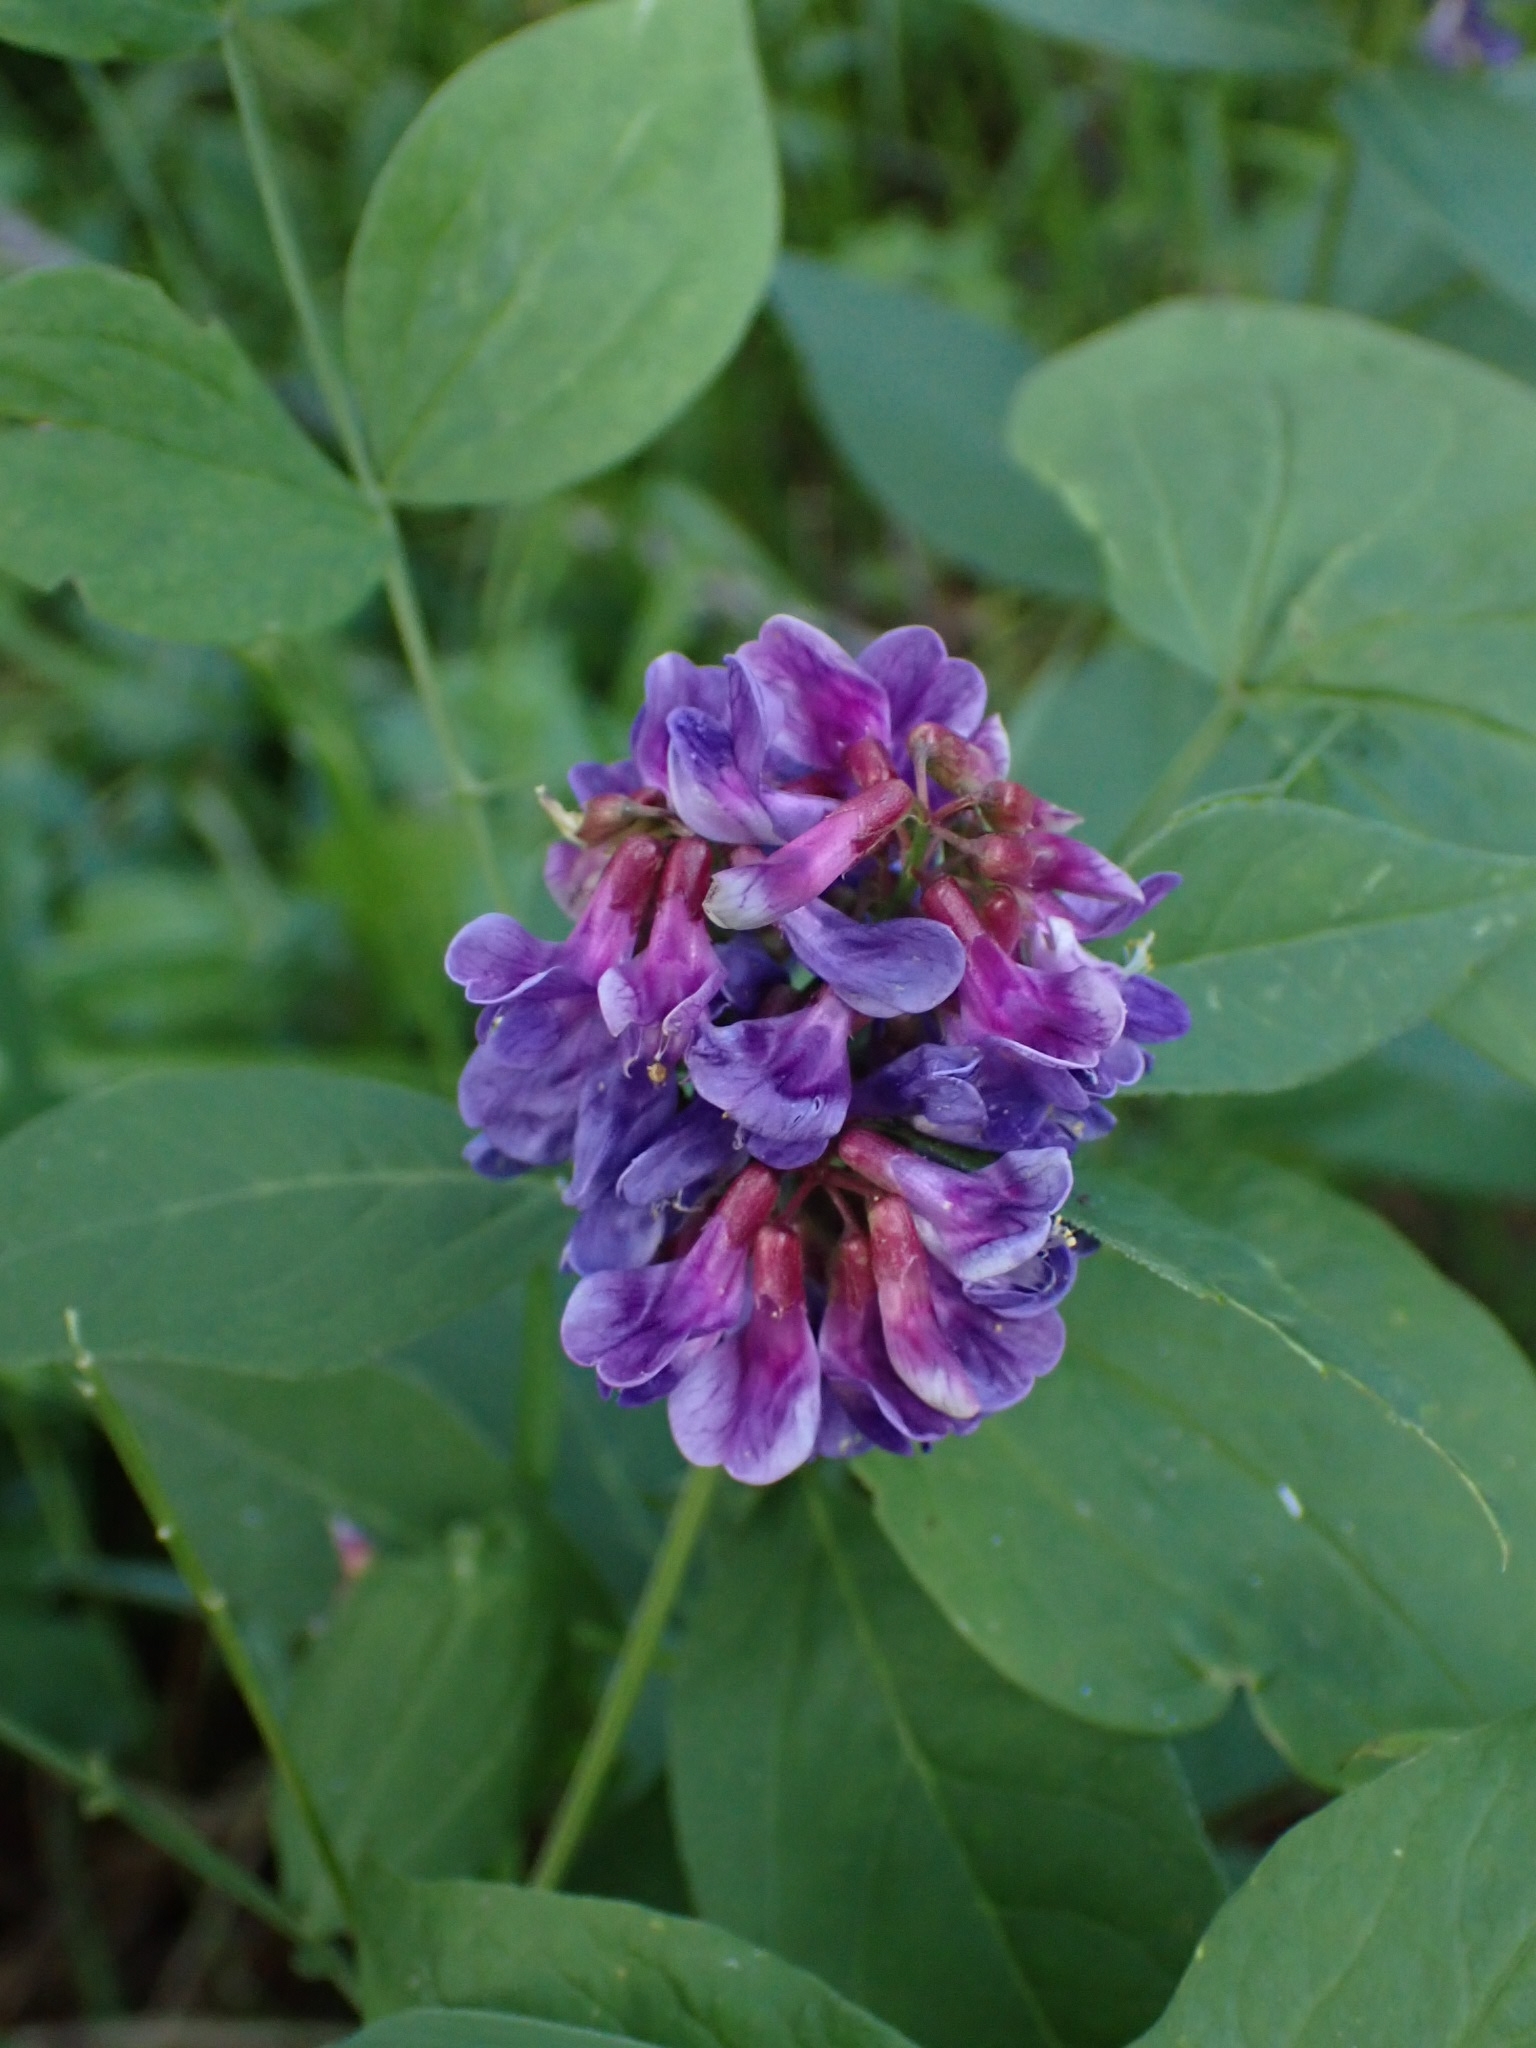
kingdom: Plantae
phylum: Tracheophyta
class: Magnoliopsida
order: Fabales
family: Fabaceae
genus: Vicia
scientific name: Vicia unijuga
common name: Two-leaf vetch
